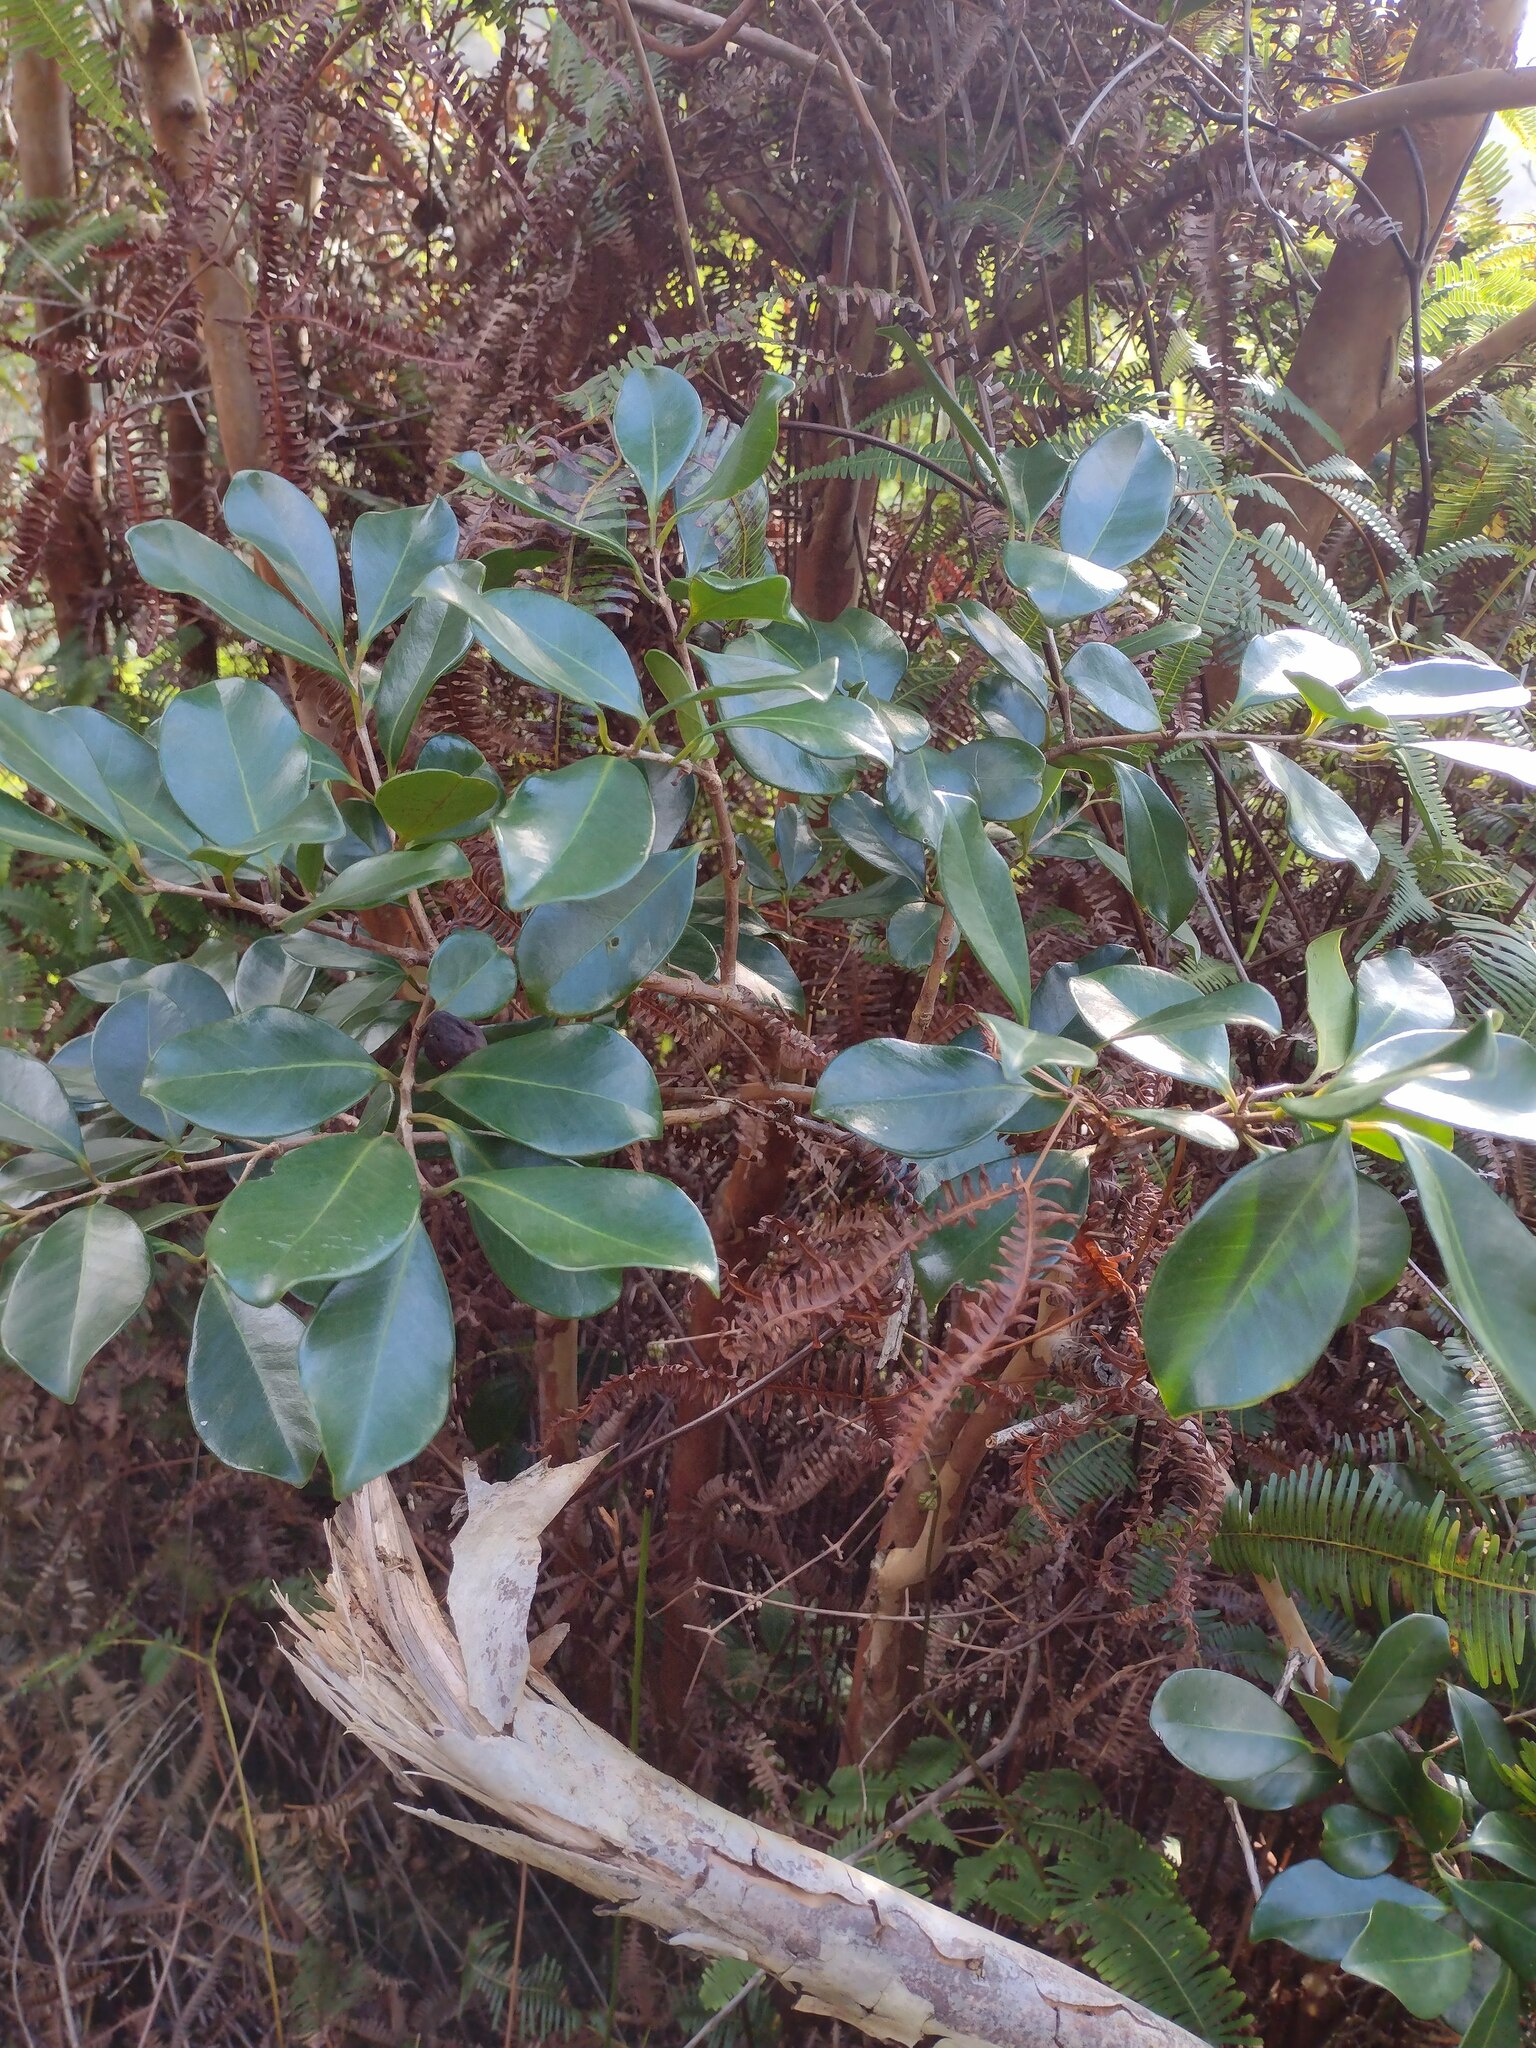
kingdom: Plantae
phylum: Tracheophyta
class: Magnoliopsida
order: Myrtales
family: Myrtaceae
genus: Psidium
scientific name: Psidium cattleianum
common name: Strawberry guava
